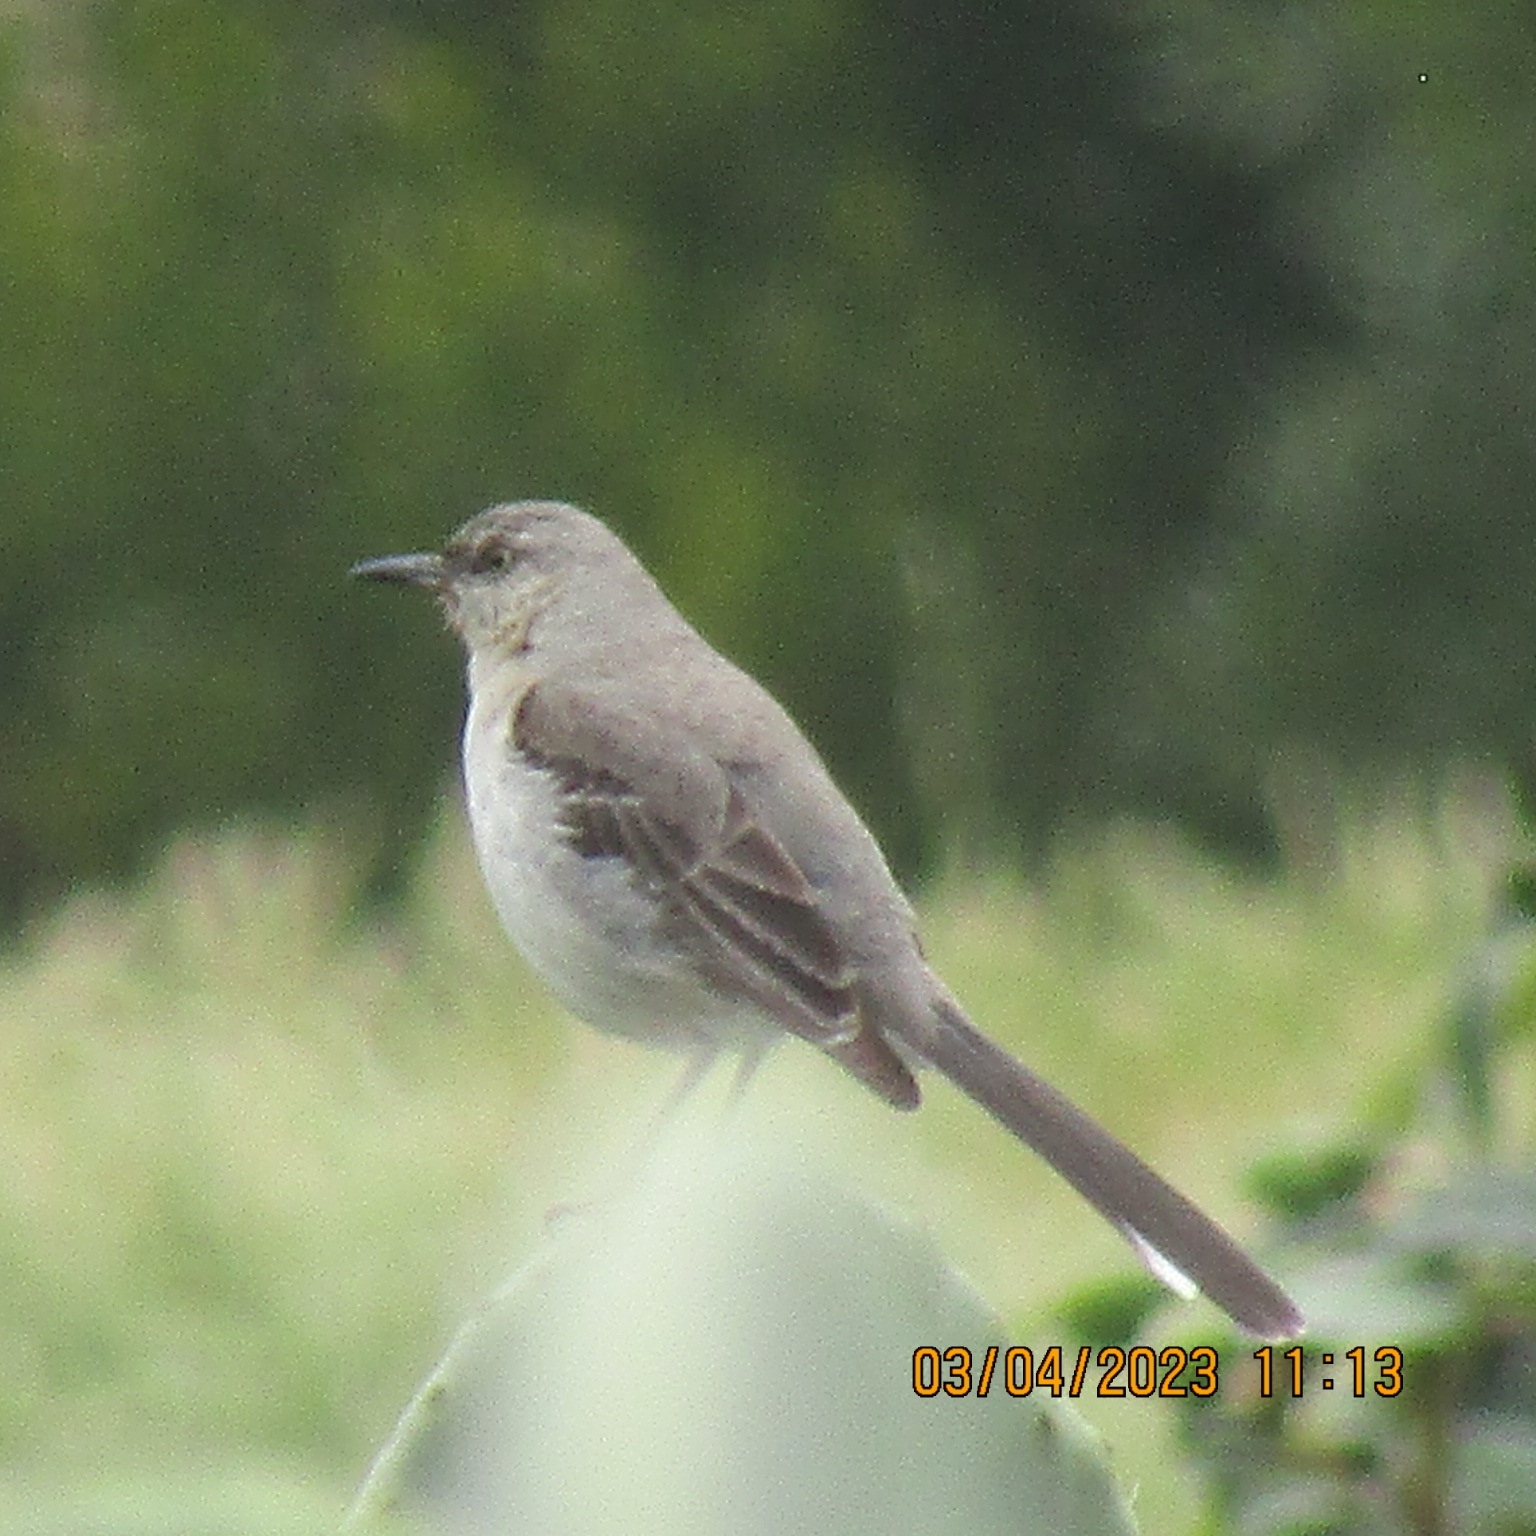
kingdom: Animalia
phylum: Chordata
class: Aves
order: Passeriformes
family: Mimidae
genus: Mimus
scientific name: Mimus polyglottos
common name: Northern mockingbird
